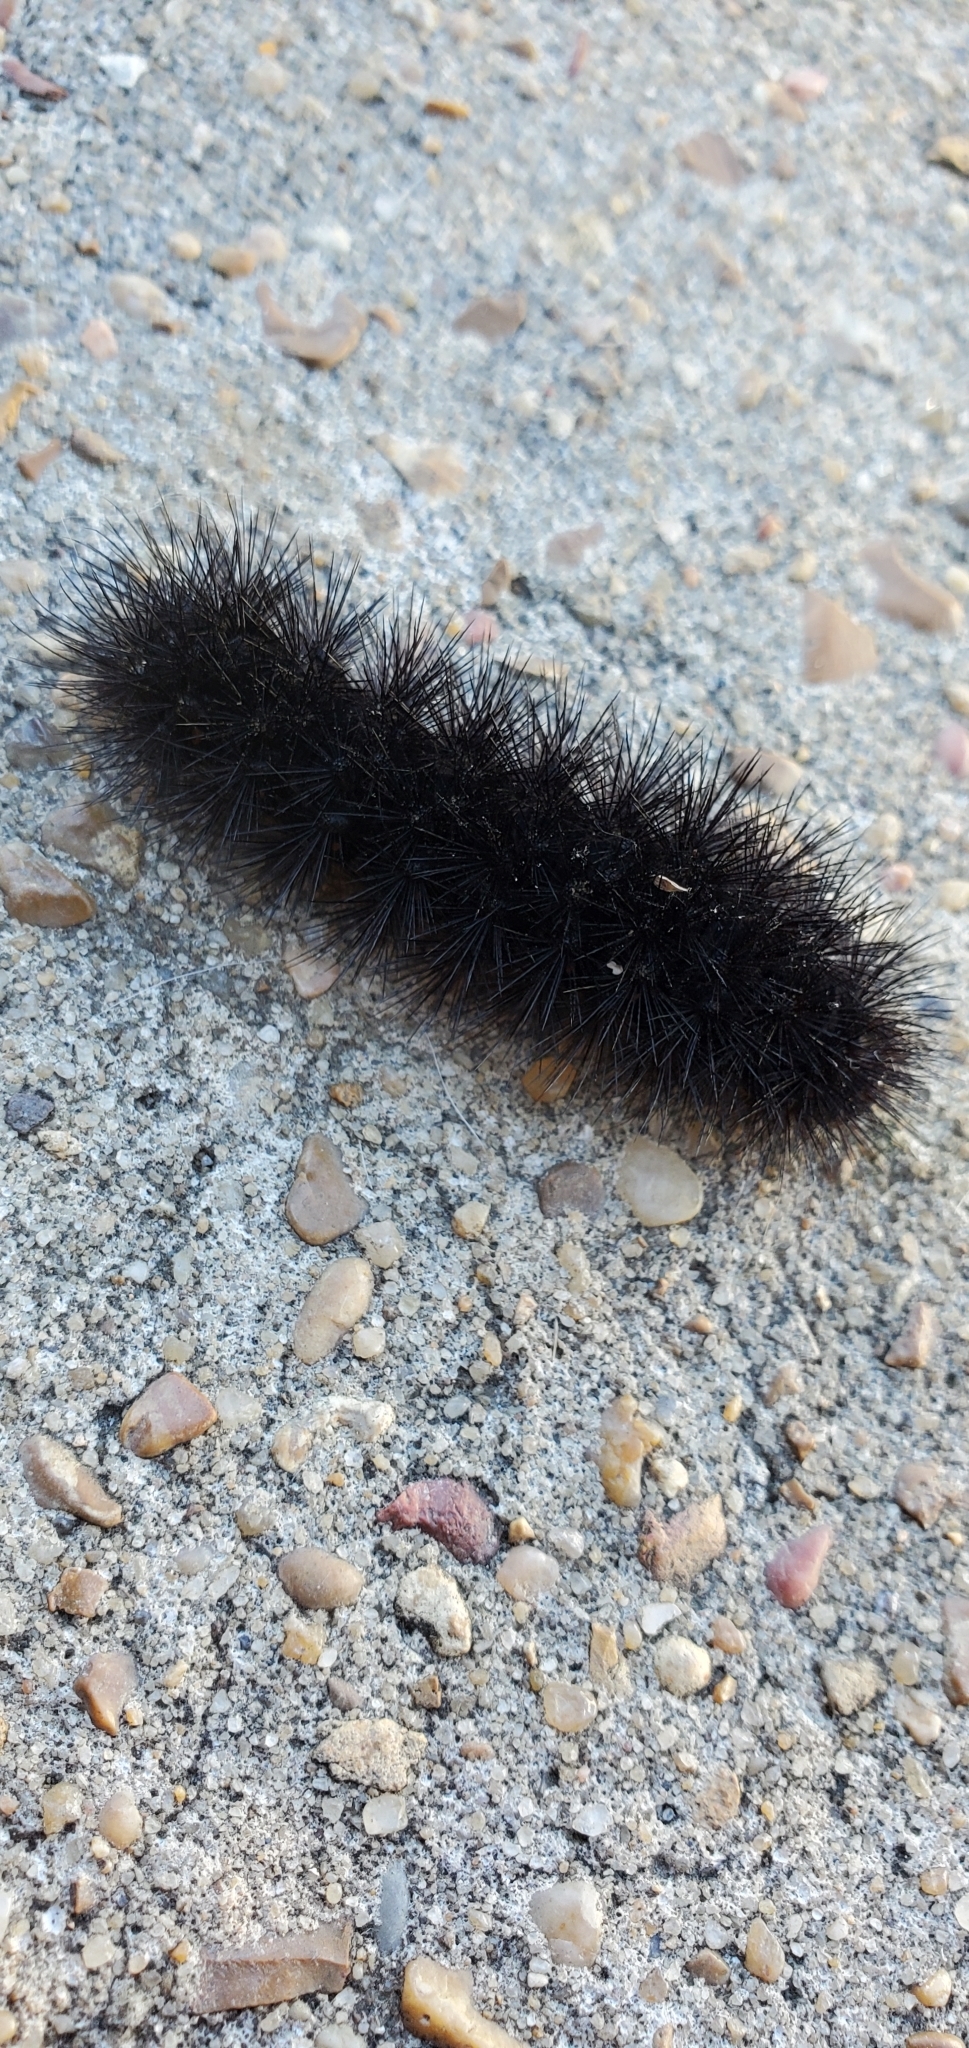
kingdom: Animalia
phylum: Arthropoda
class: Insecta
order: Lepidoptera
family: Erebidae
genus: Hypercompe
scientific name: Hypercompe scribonia
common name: Giant leopard moth
